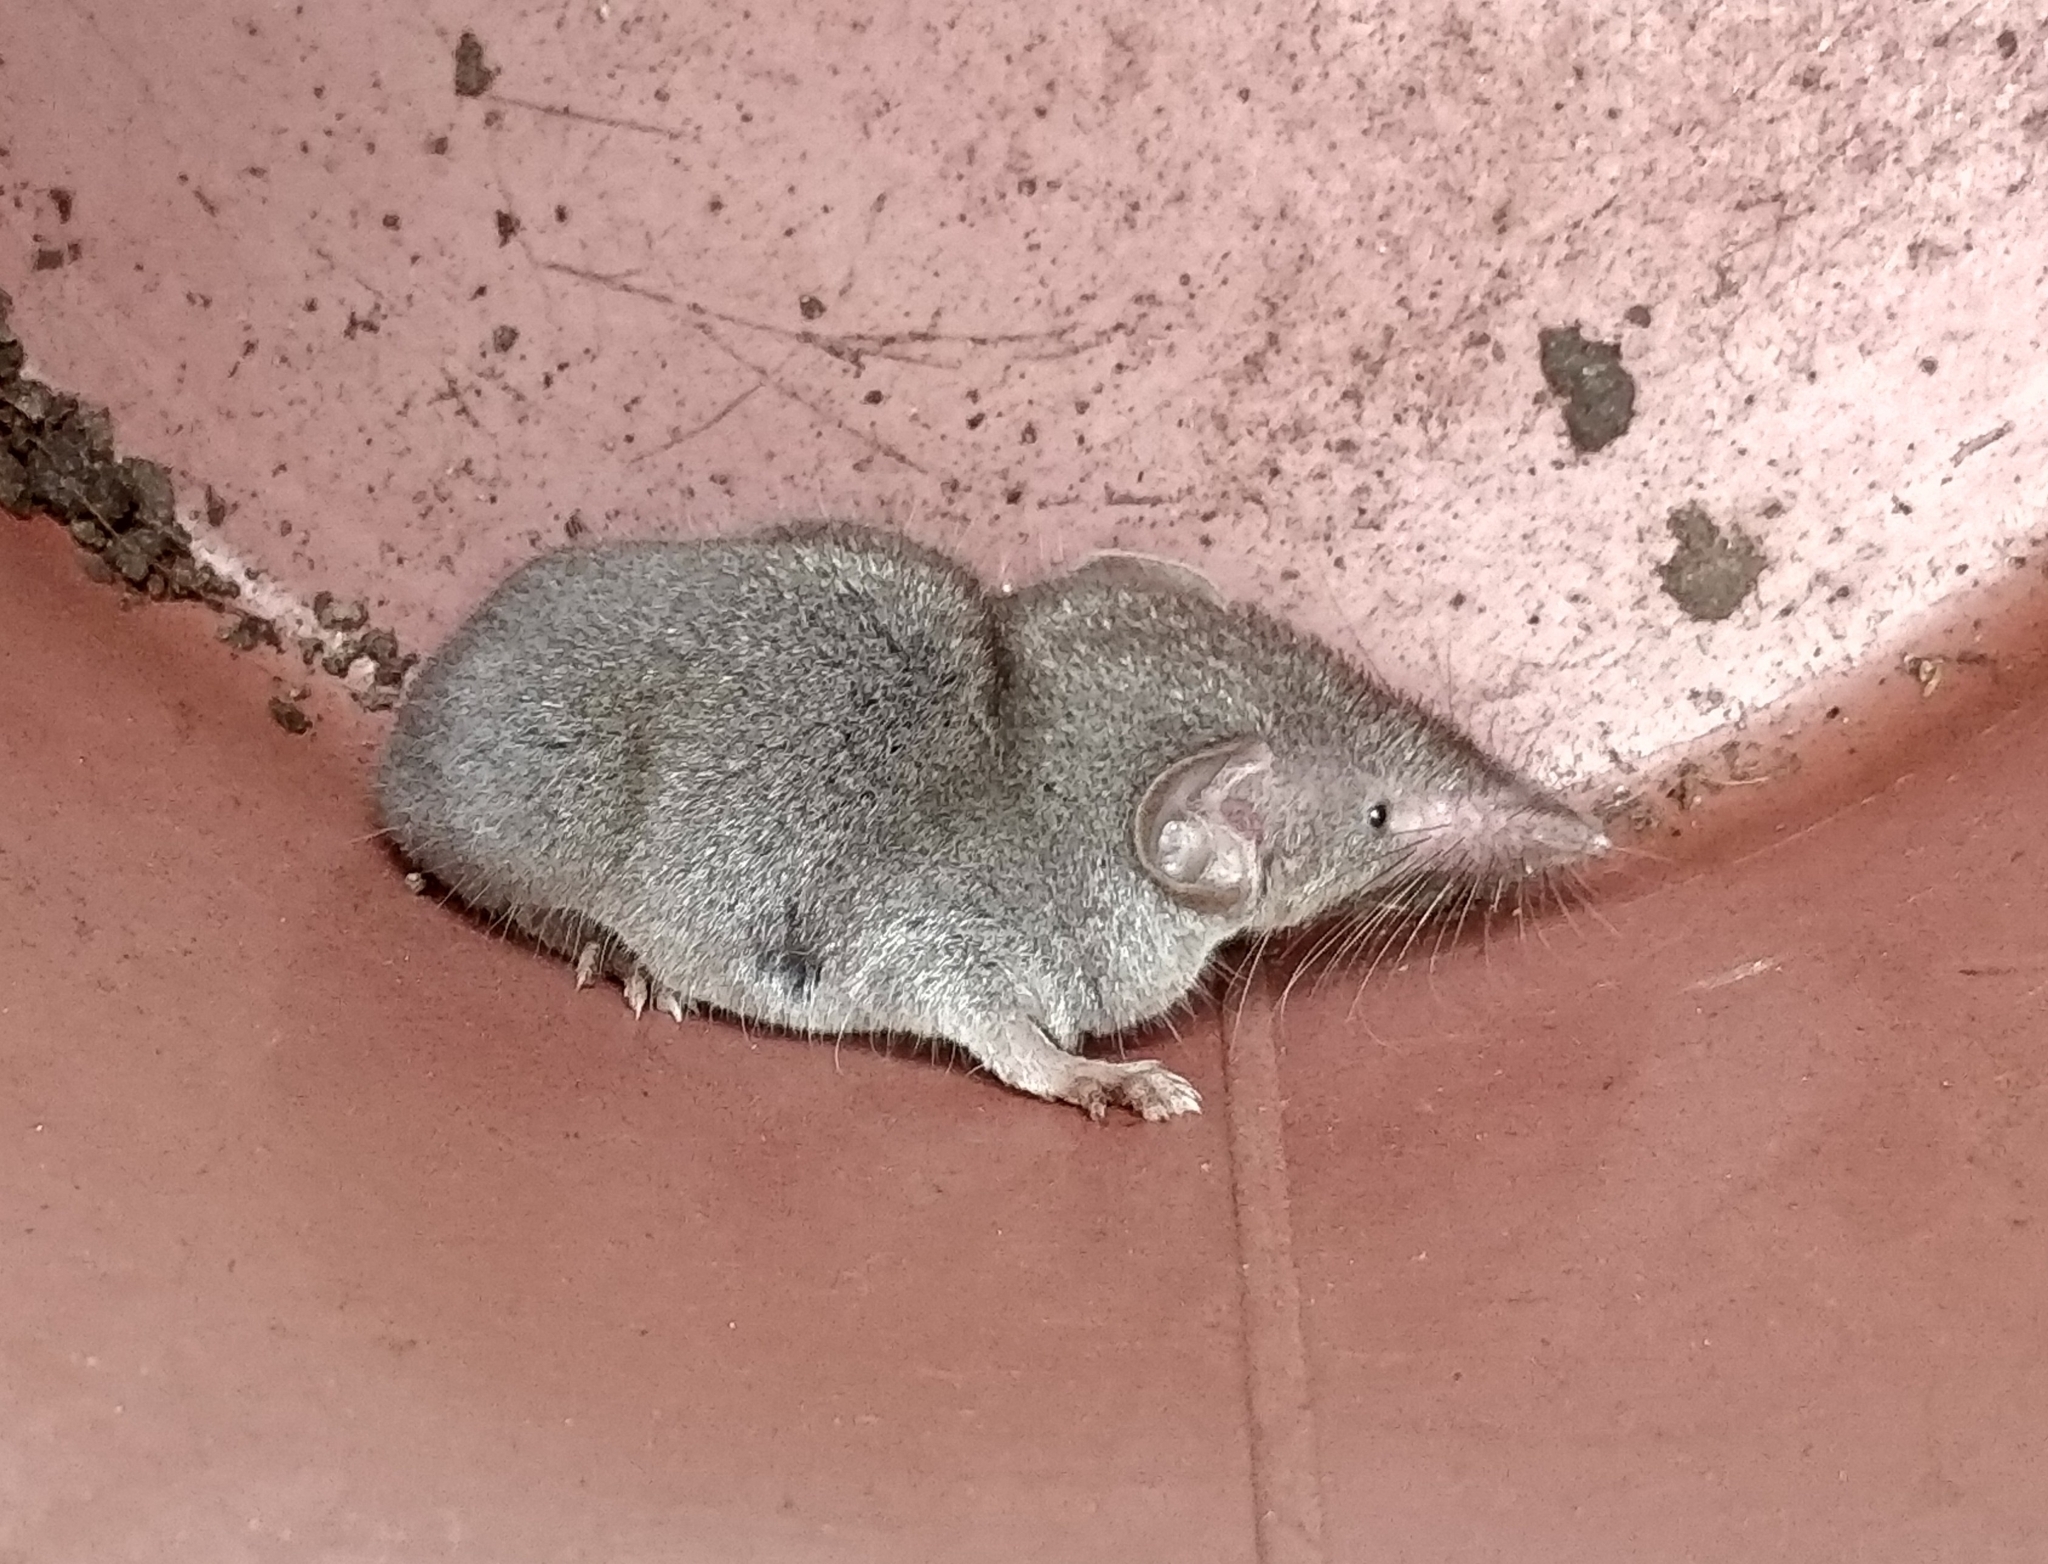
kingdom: Animalia
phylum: Chordata
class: Mammalia
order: Soricomorpha
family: Soricidae
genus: Suncus
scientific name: Suncus murinus
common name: Asian house shrew
